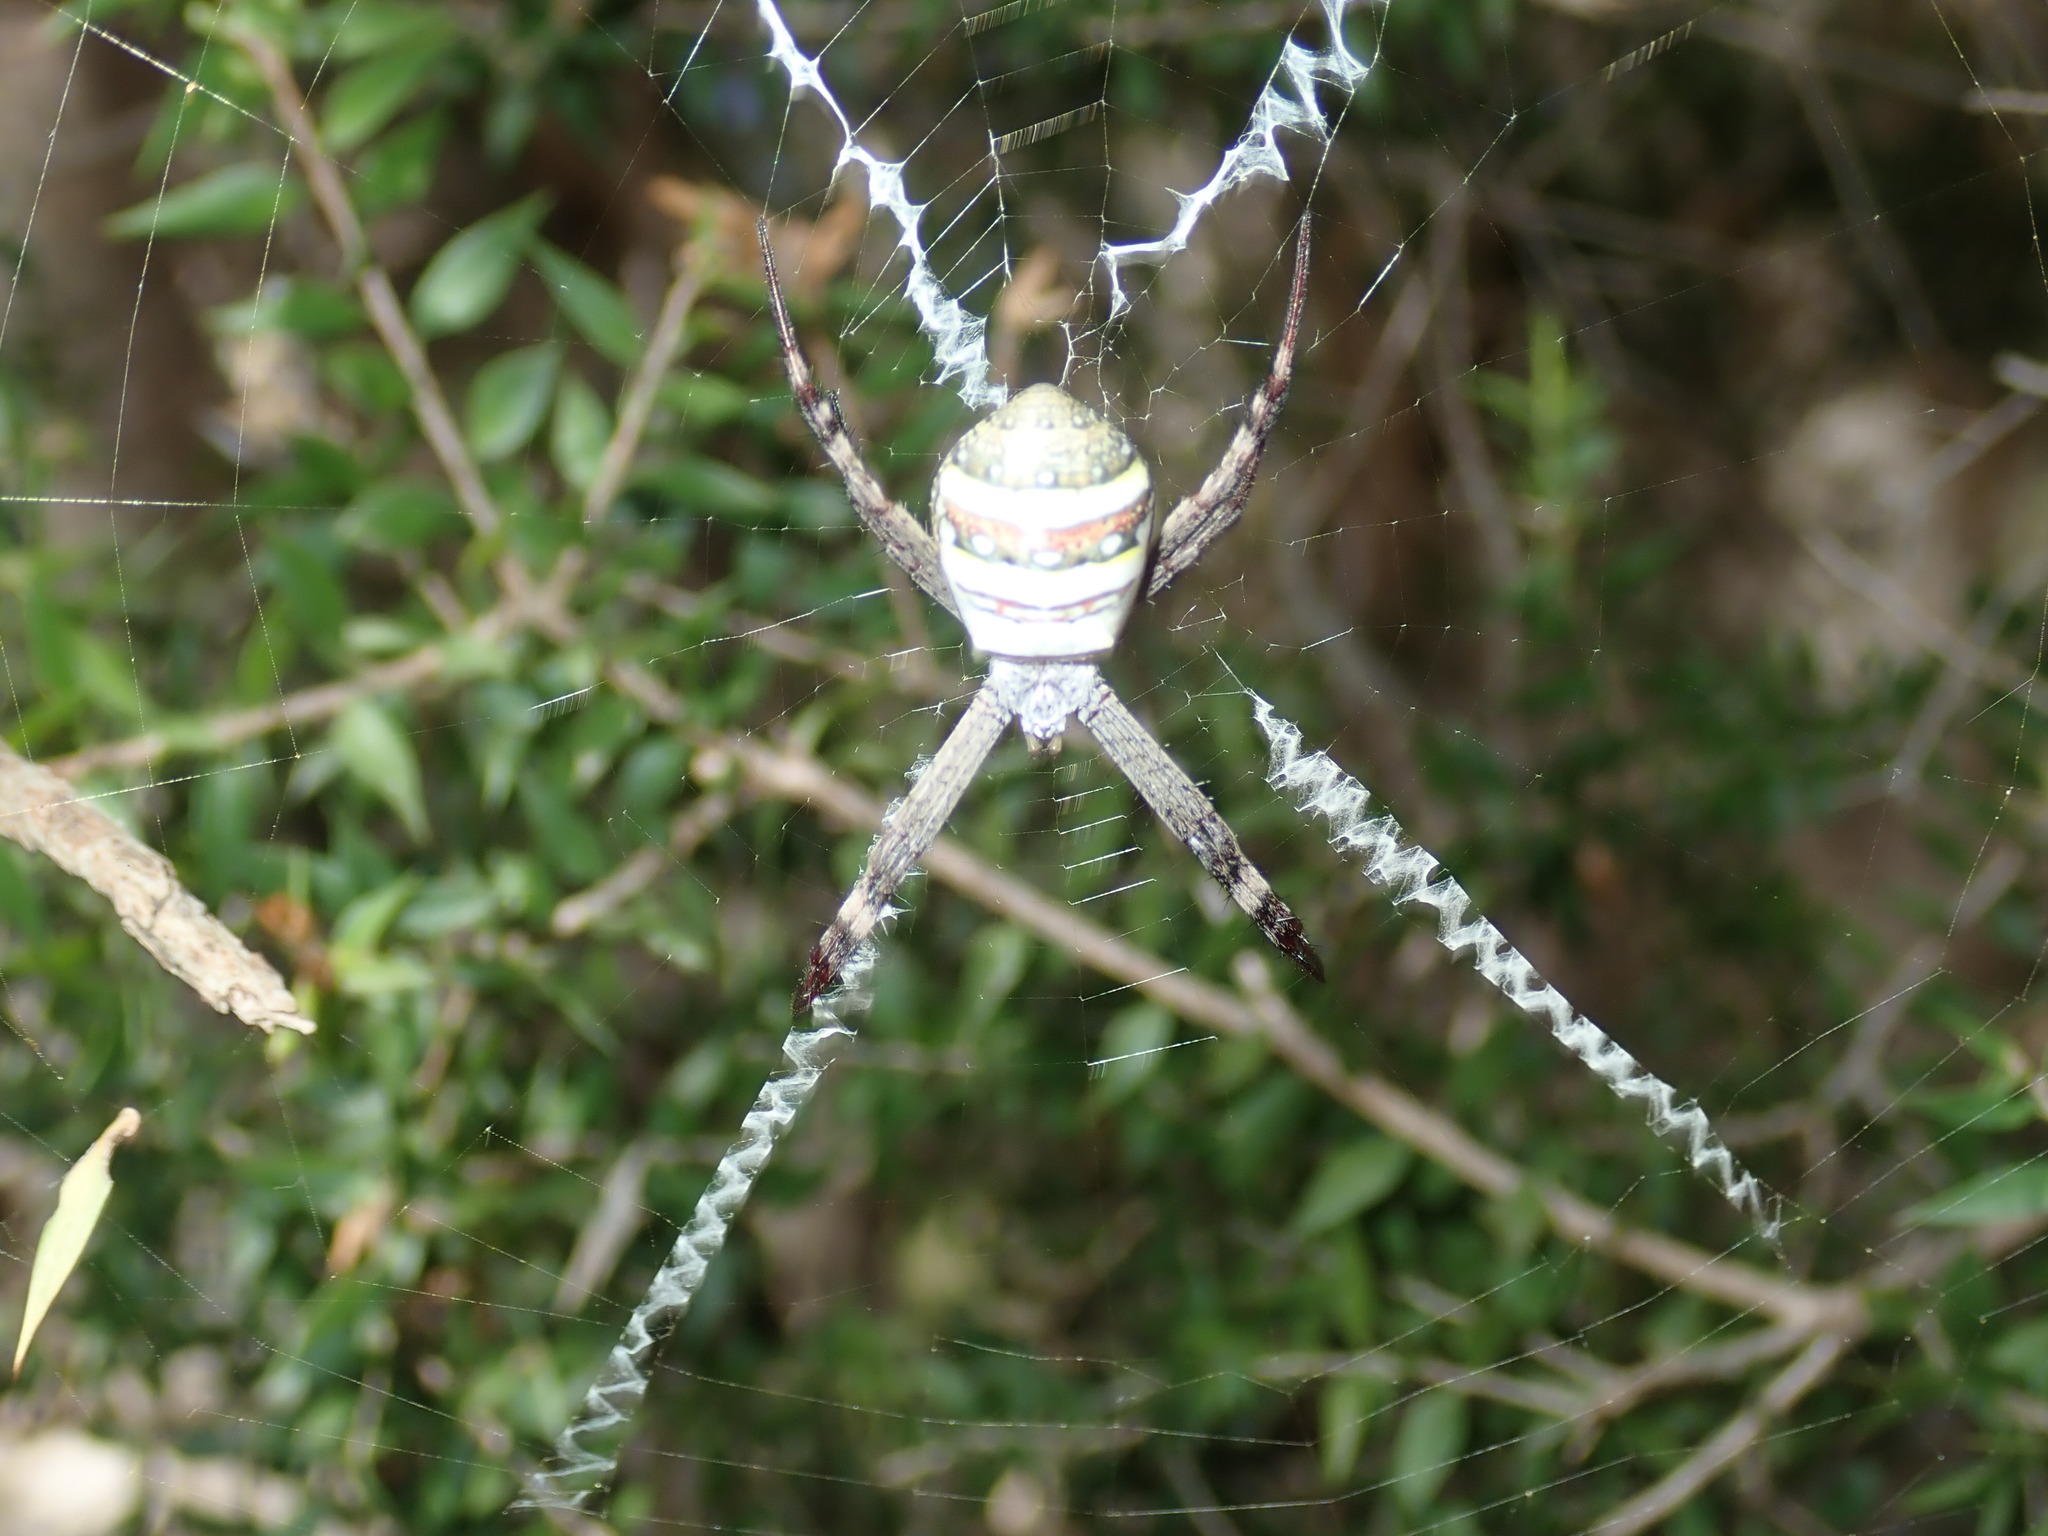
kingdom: Animalia
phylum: Arthropoda
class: Arachnida
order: Araneae
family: Araneidae
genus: Argiope
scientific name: Argiope keyserlingi
